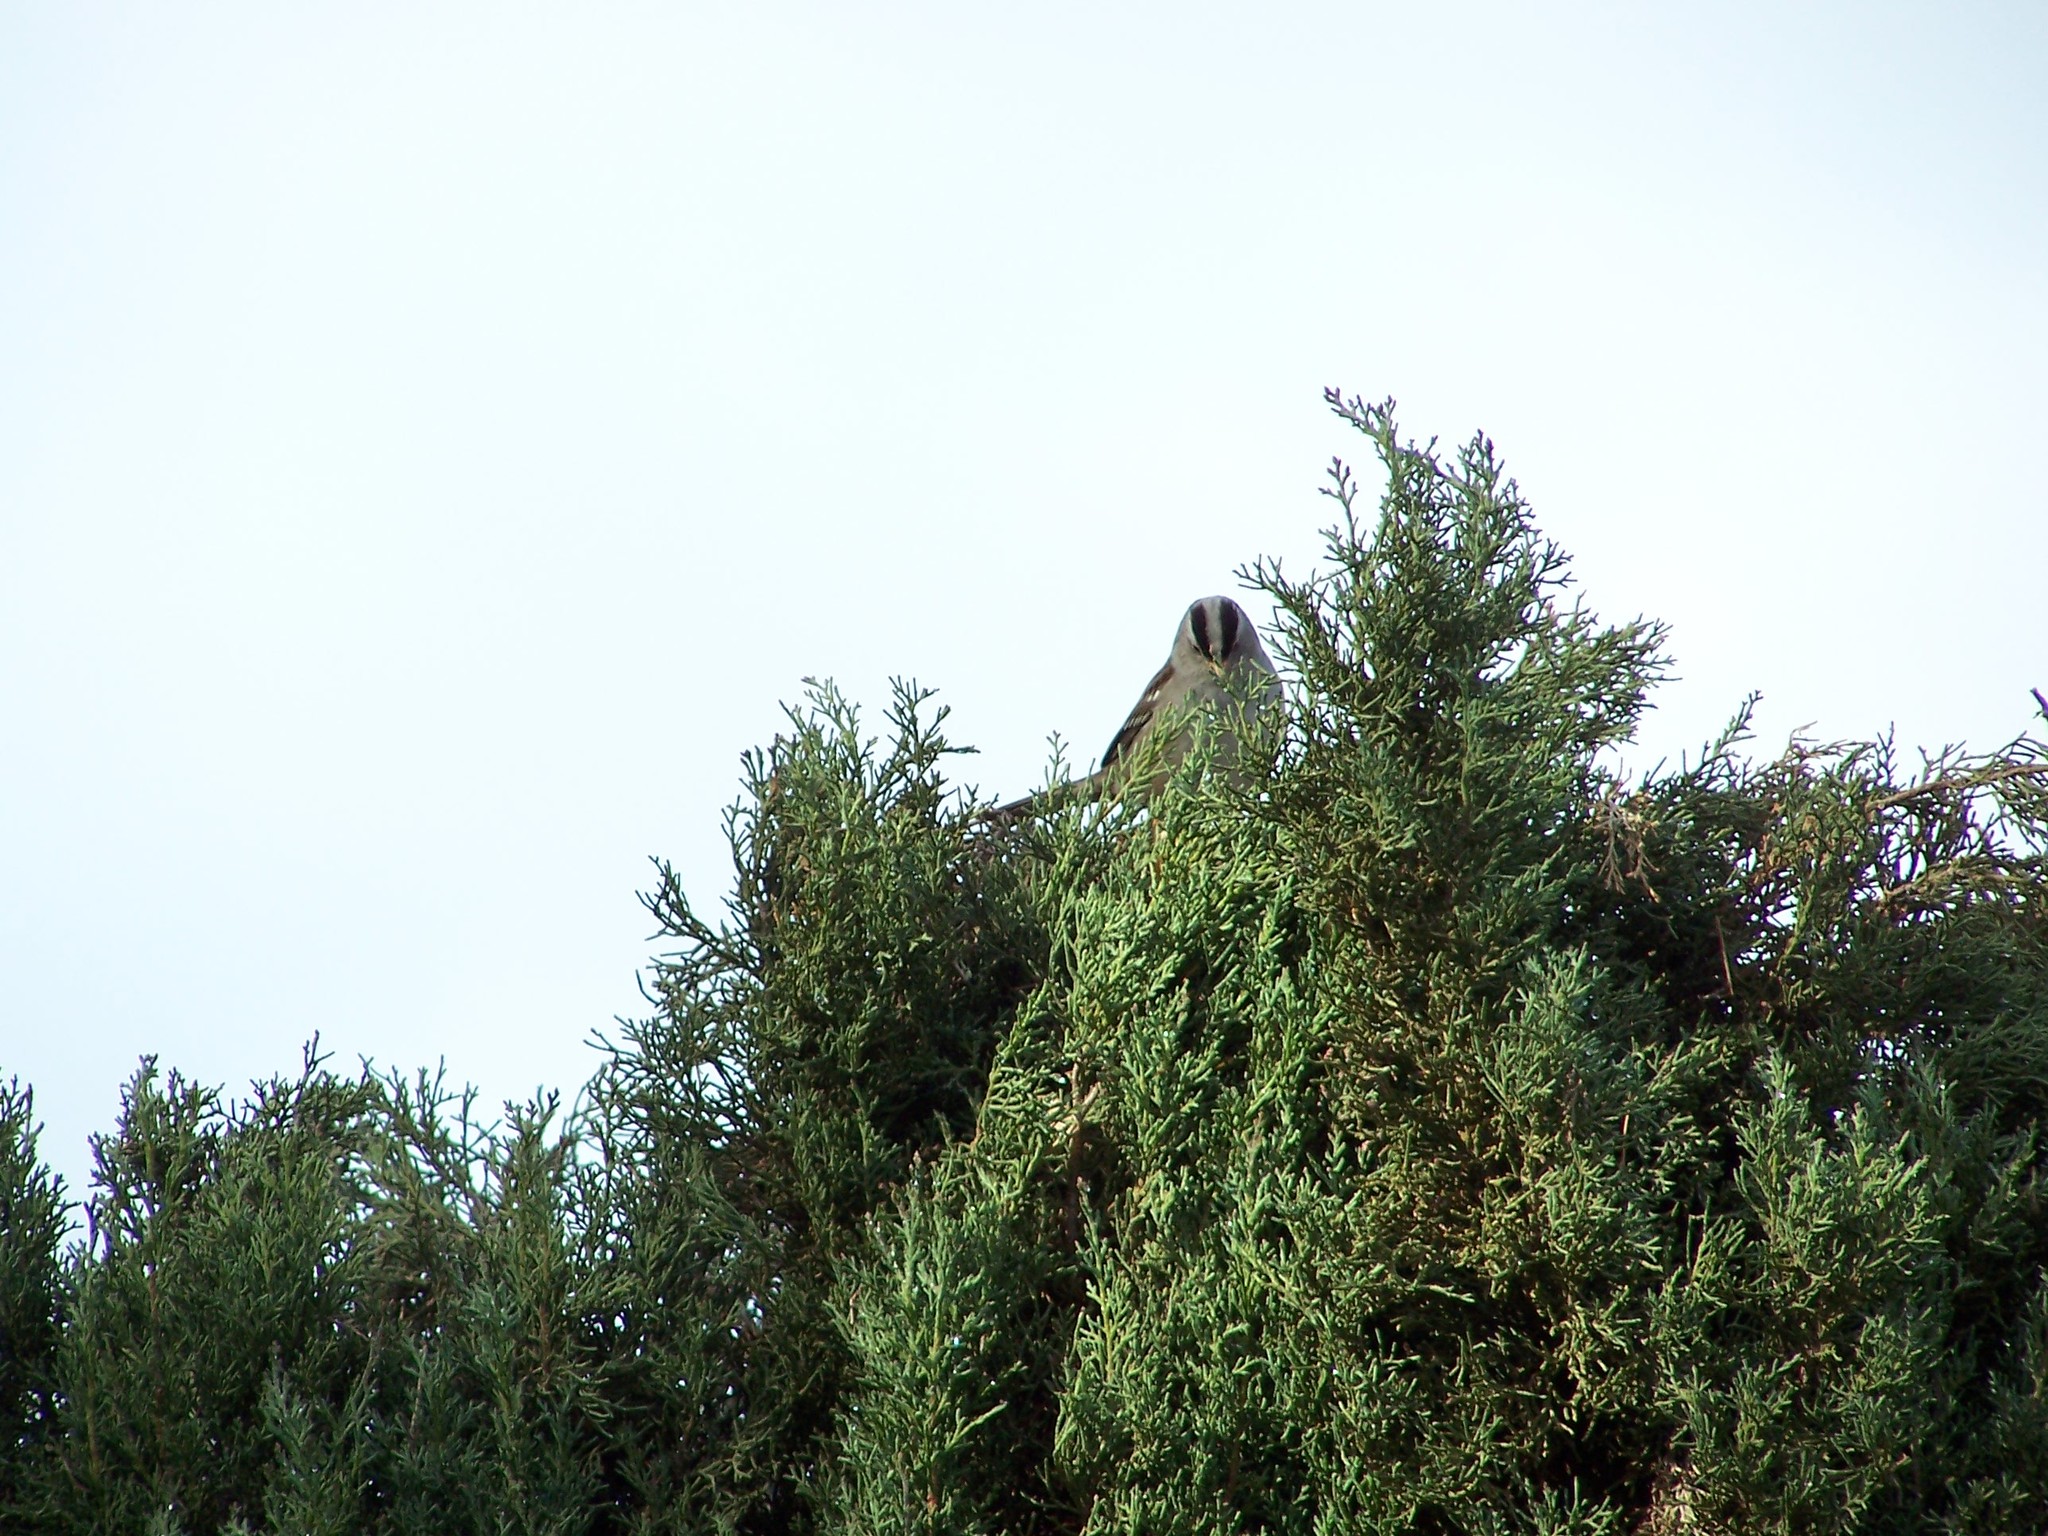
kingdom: Animalia
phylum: Chordata
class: Aves
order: Passeriformes
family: Passerellidae
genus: Zonotrichia
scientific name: Zonotrichia leucophrys
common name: White-crowned sparrow
